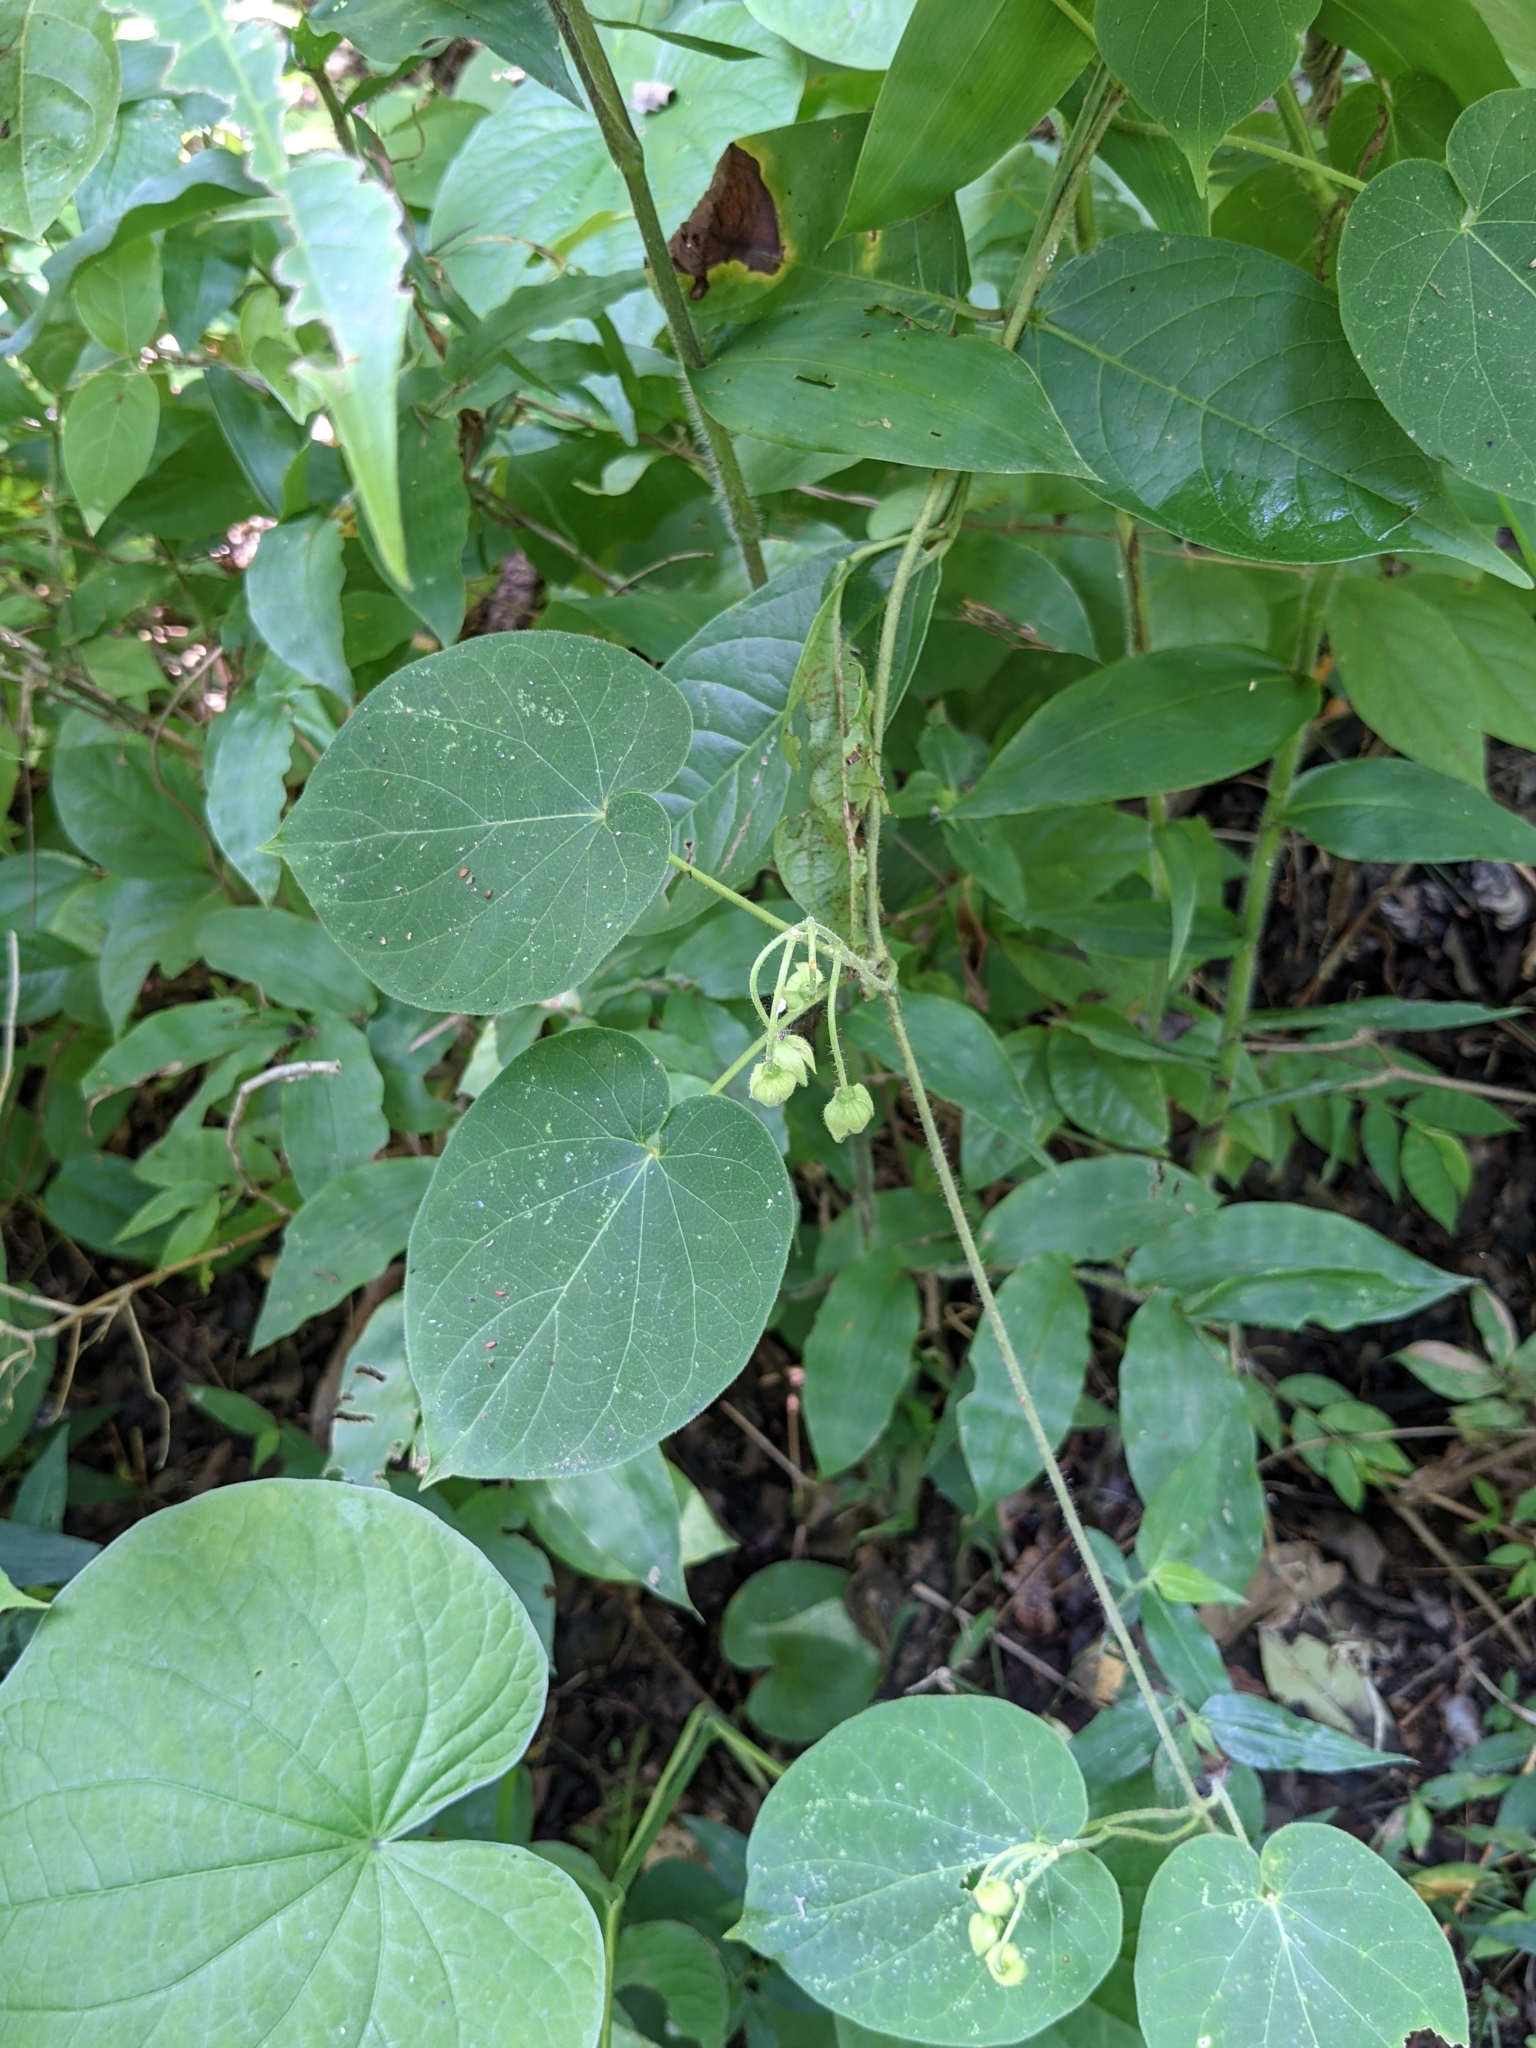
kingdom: Plantae
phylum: Tracheophyta
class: Magnoliopsida
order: Gentianales
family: Apocynaceae
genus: Polystemma
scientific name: Polystemma guatemalense
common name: Arborescente rattan
